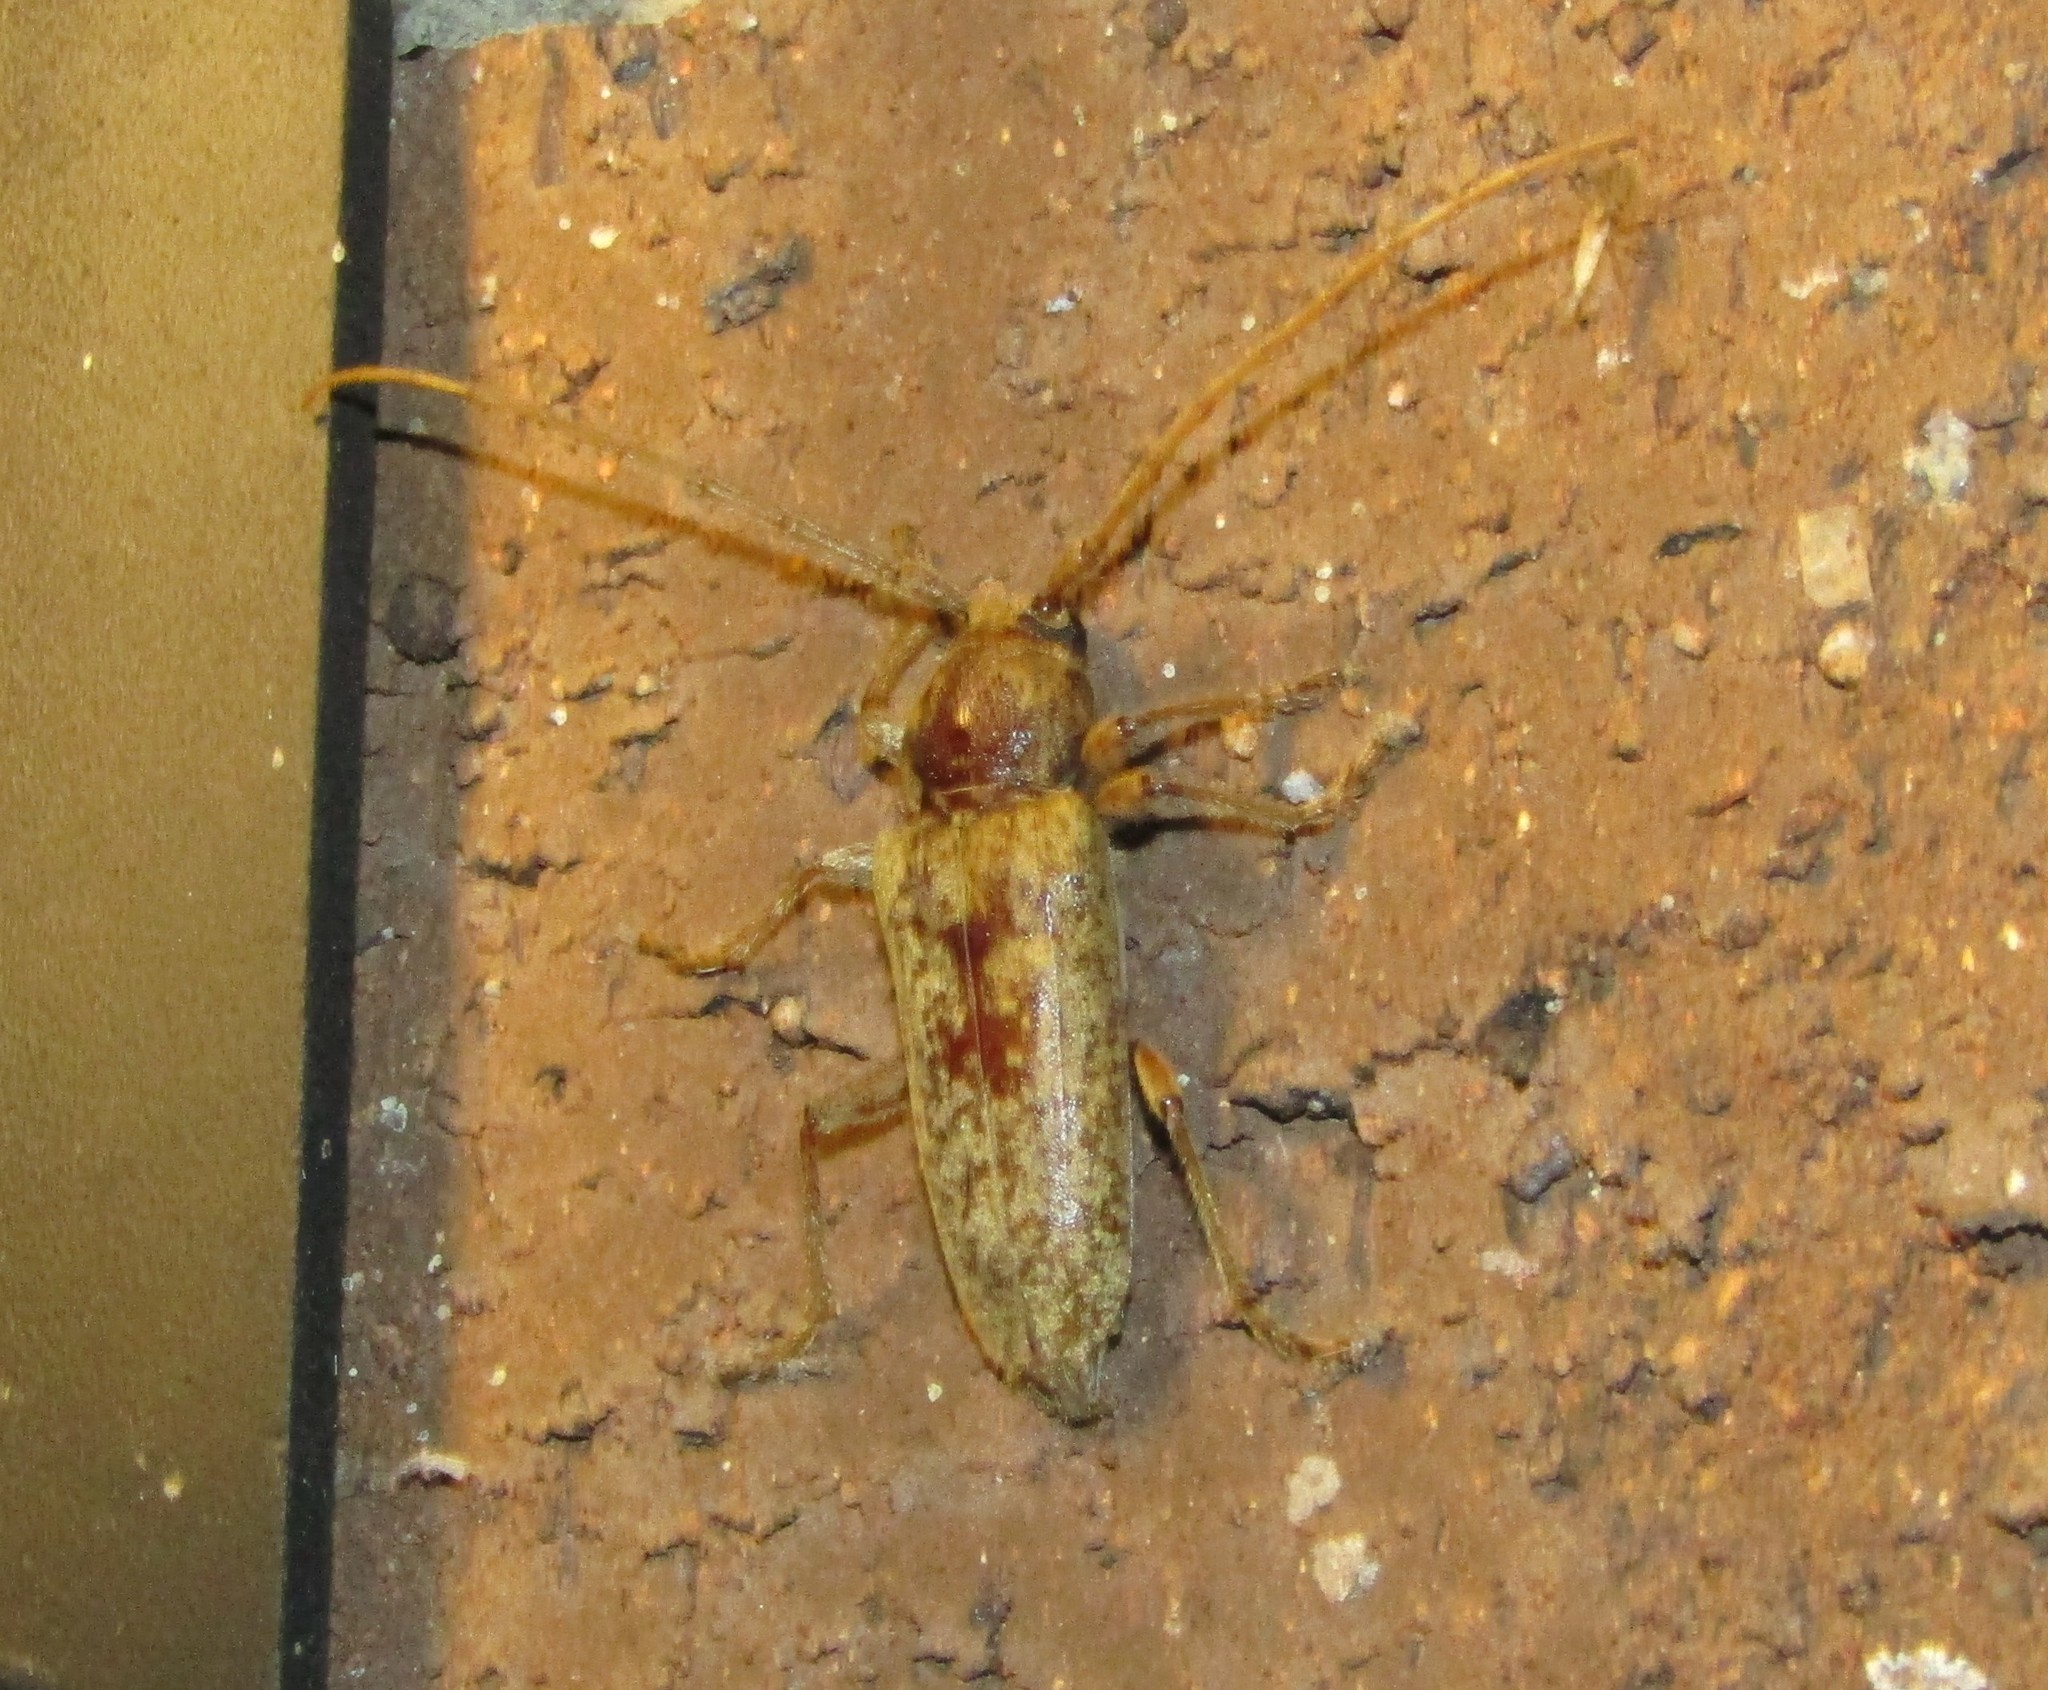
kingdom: Animalia
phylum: Arthropoda
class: Insecta
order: Coleoptera
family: Cerambycidae
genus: Enaphalodes
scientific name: Enaphalodes rufulus
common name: Red oak borer
